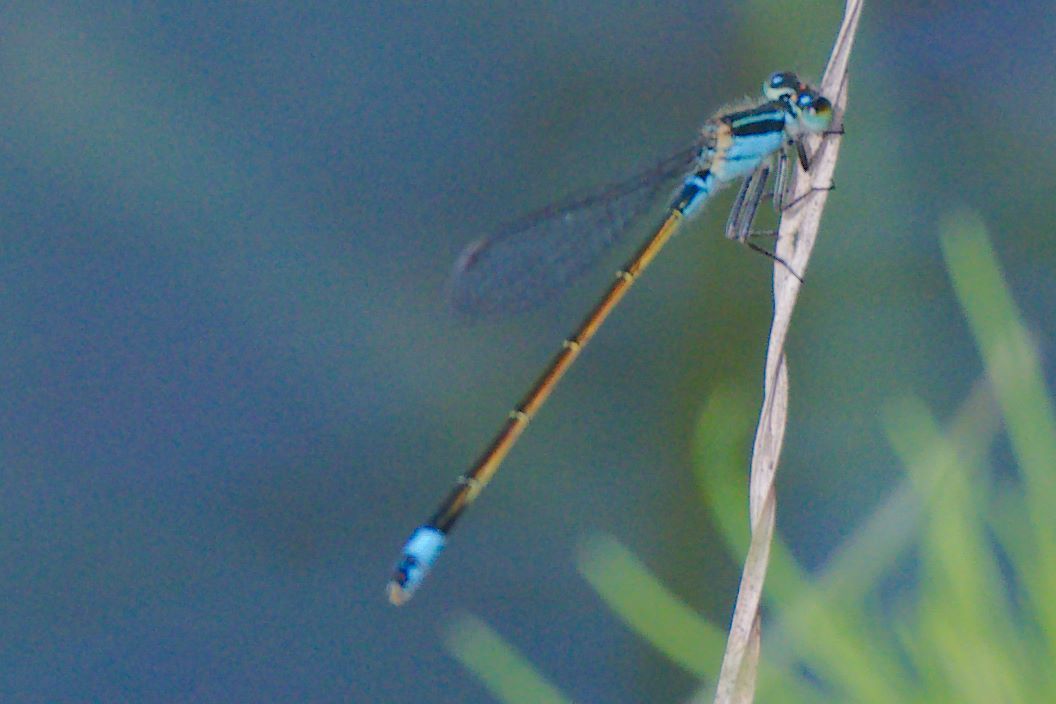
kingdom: Animalia
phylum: Arthropoda
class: Insecta
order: Odonata
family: Coenagrionidae
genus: Ischnura
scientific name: Ischnura ramburii
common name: Rambur's forktail
